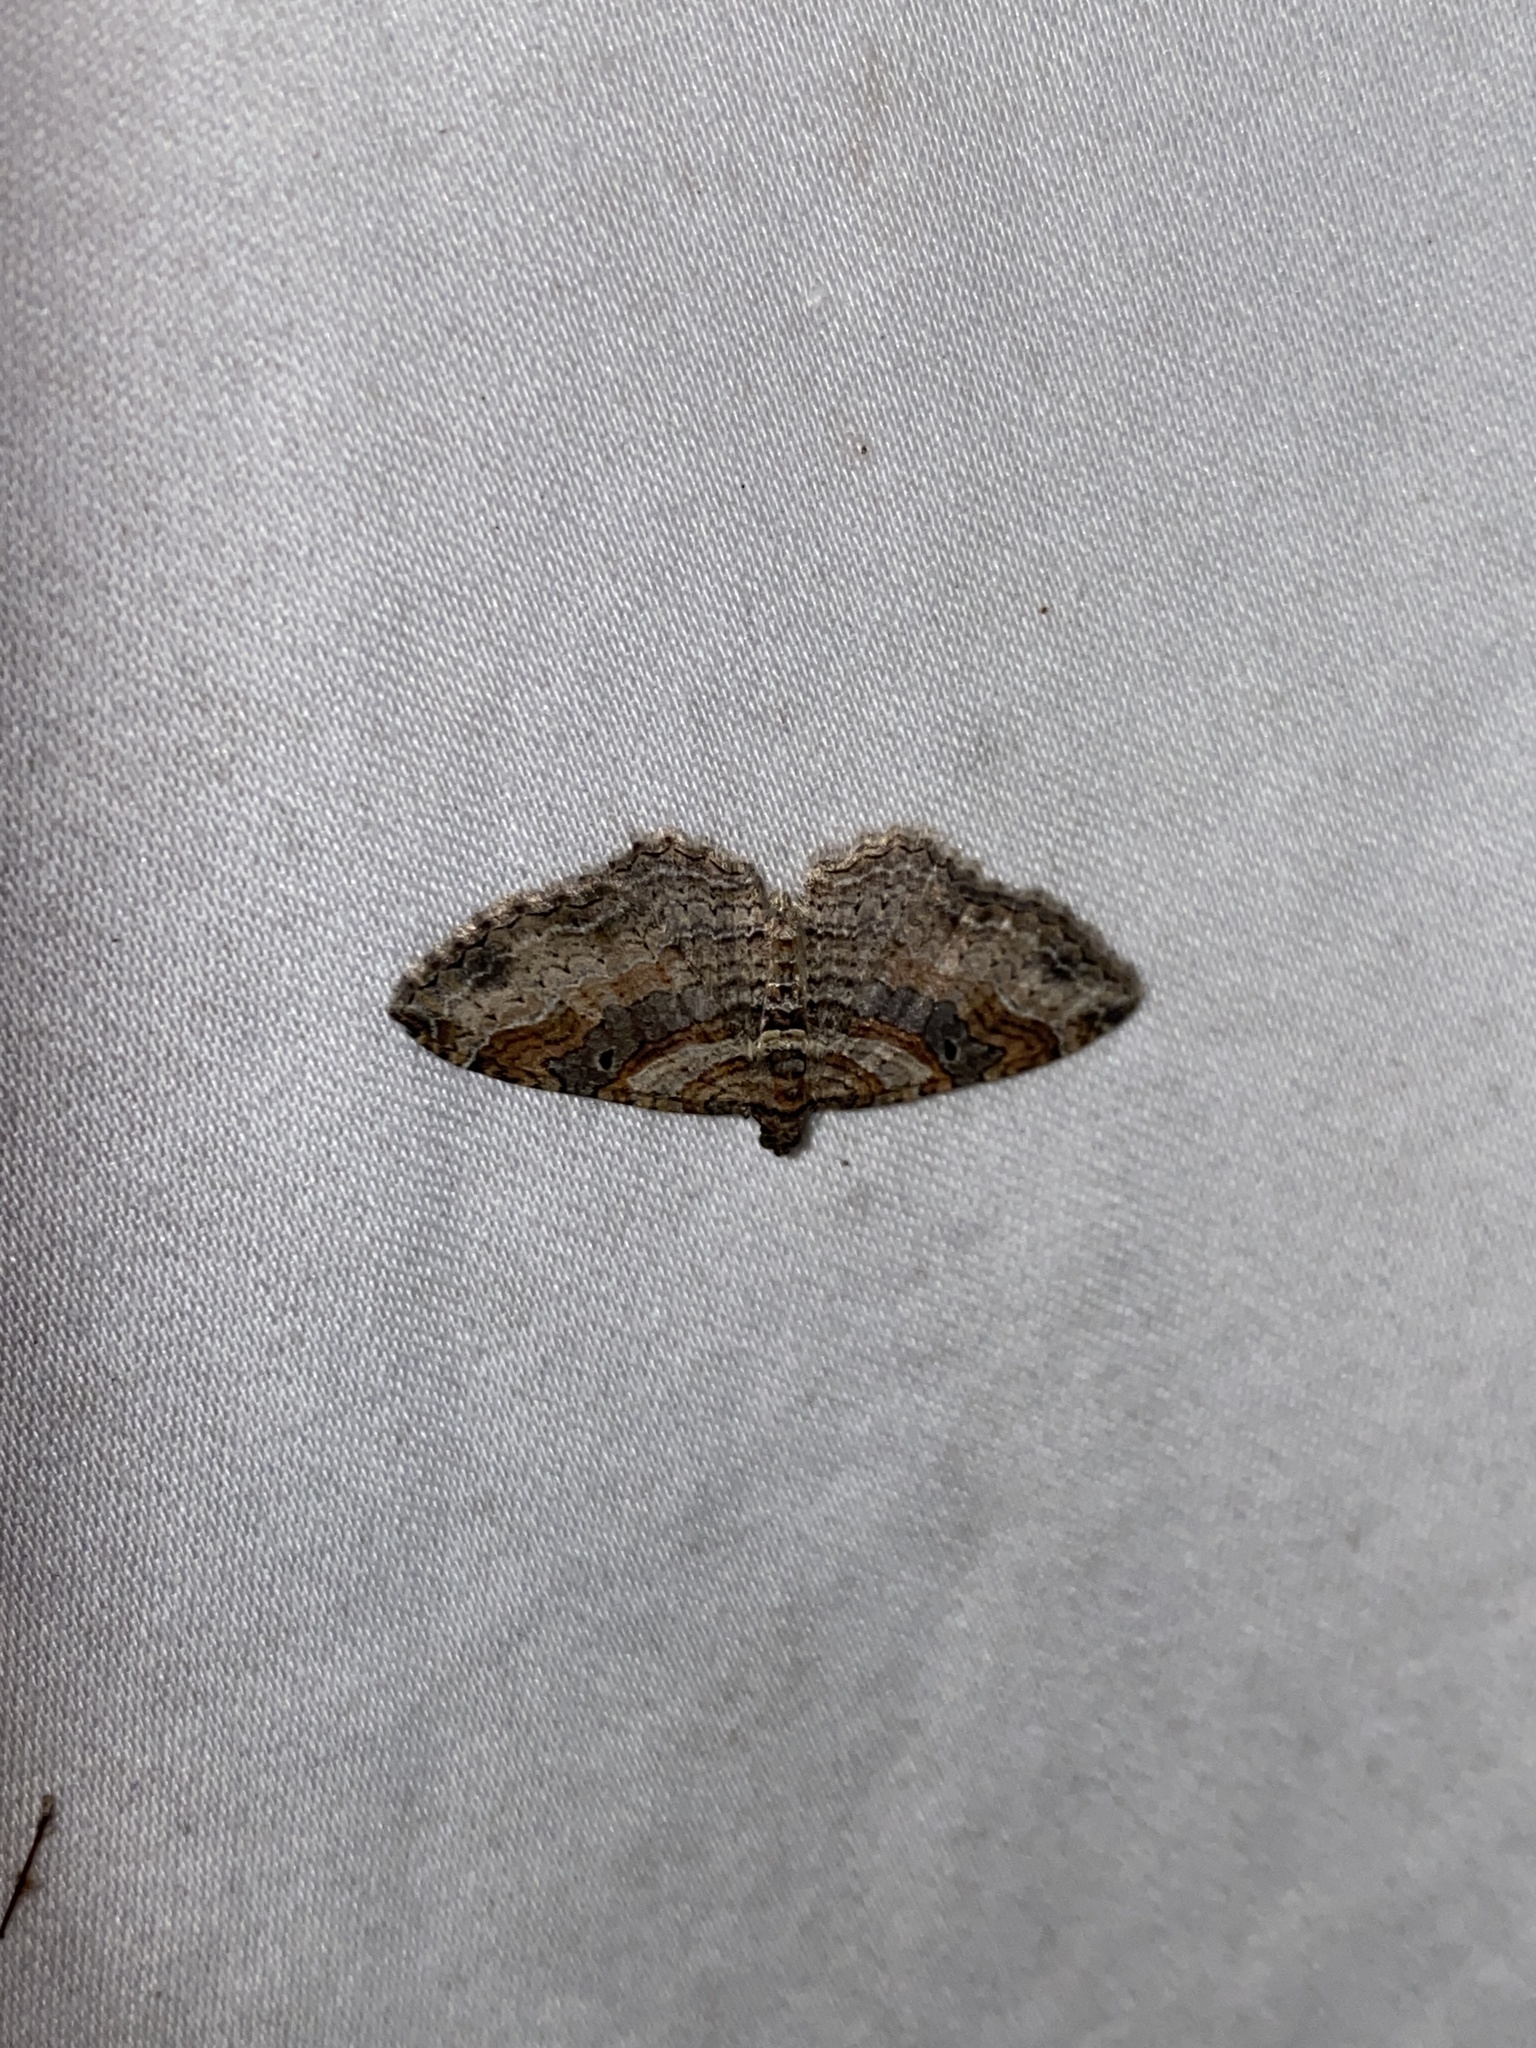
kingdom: Animalia
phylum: Arthropoda
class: Insecta
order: Lepidoptera
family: Geometridae
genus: Costaconvexa
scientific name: Costaconvexa centrostrigaria
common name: Bent-line carpet
